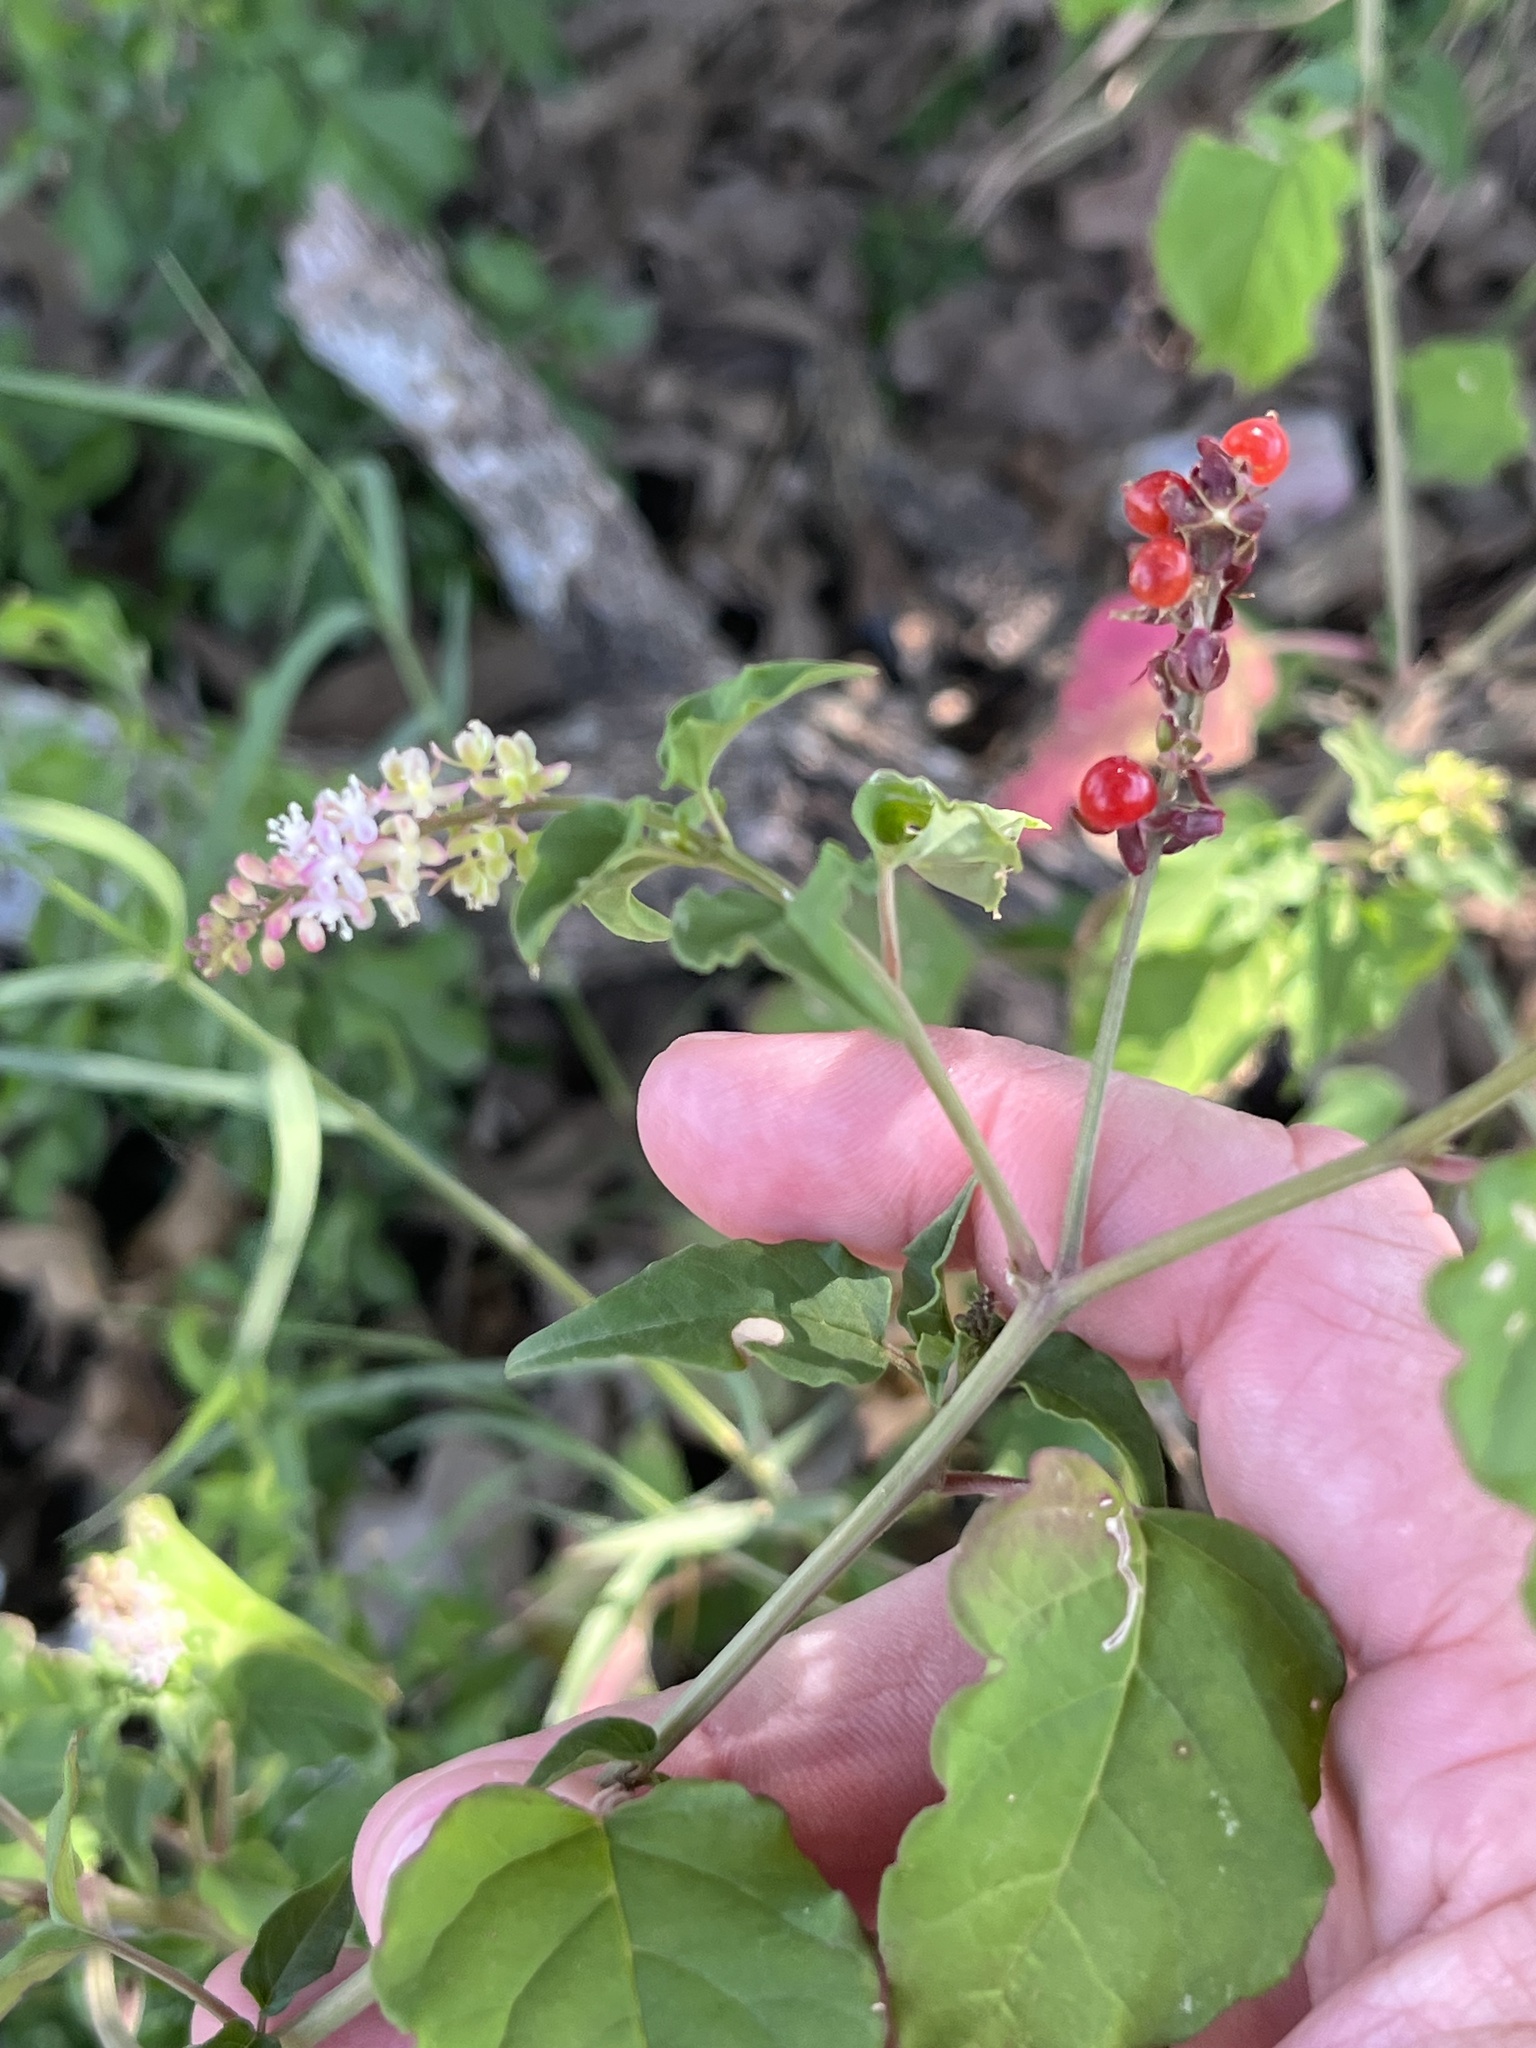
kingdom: Plantae
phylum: Tracheophyta
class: Magnoliopsida
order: Caryophyllales
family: Phytolaccaceae
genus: Rivina
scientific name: Rivina humilis
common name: Rougeplant
